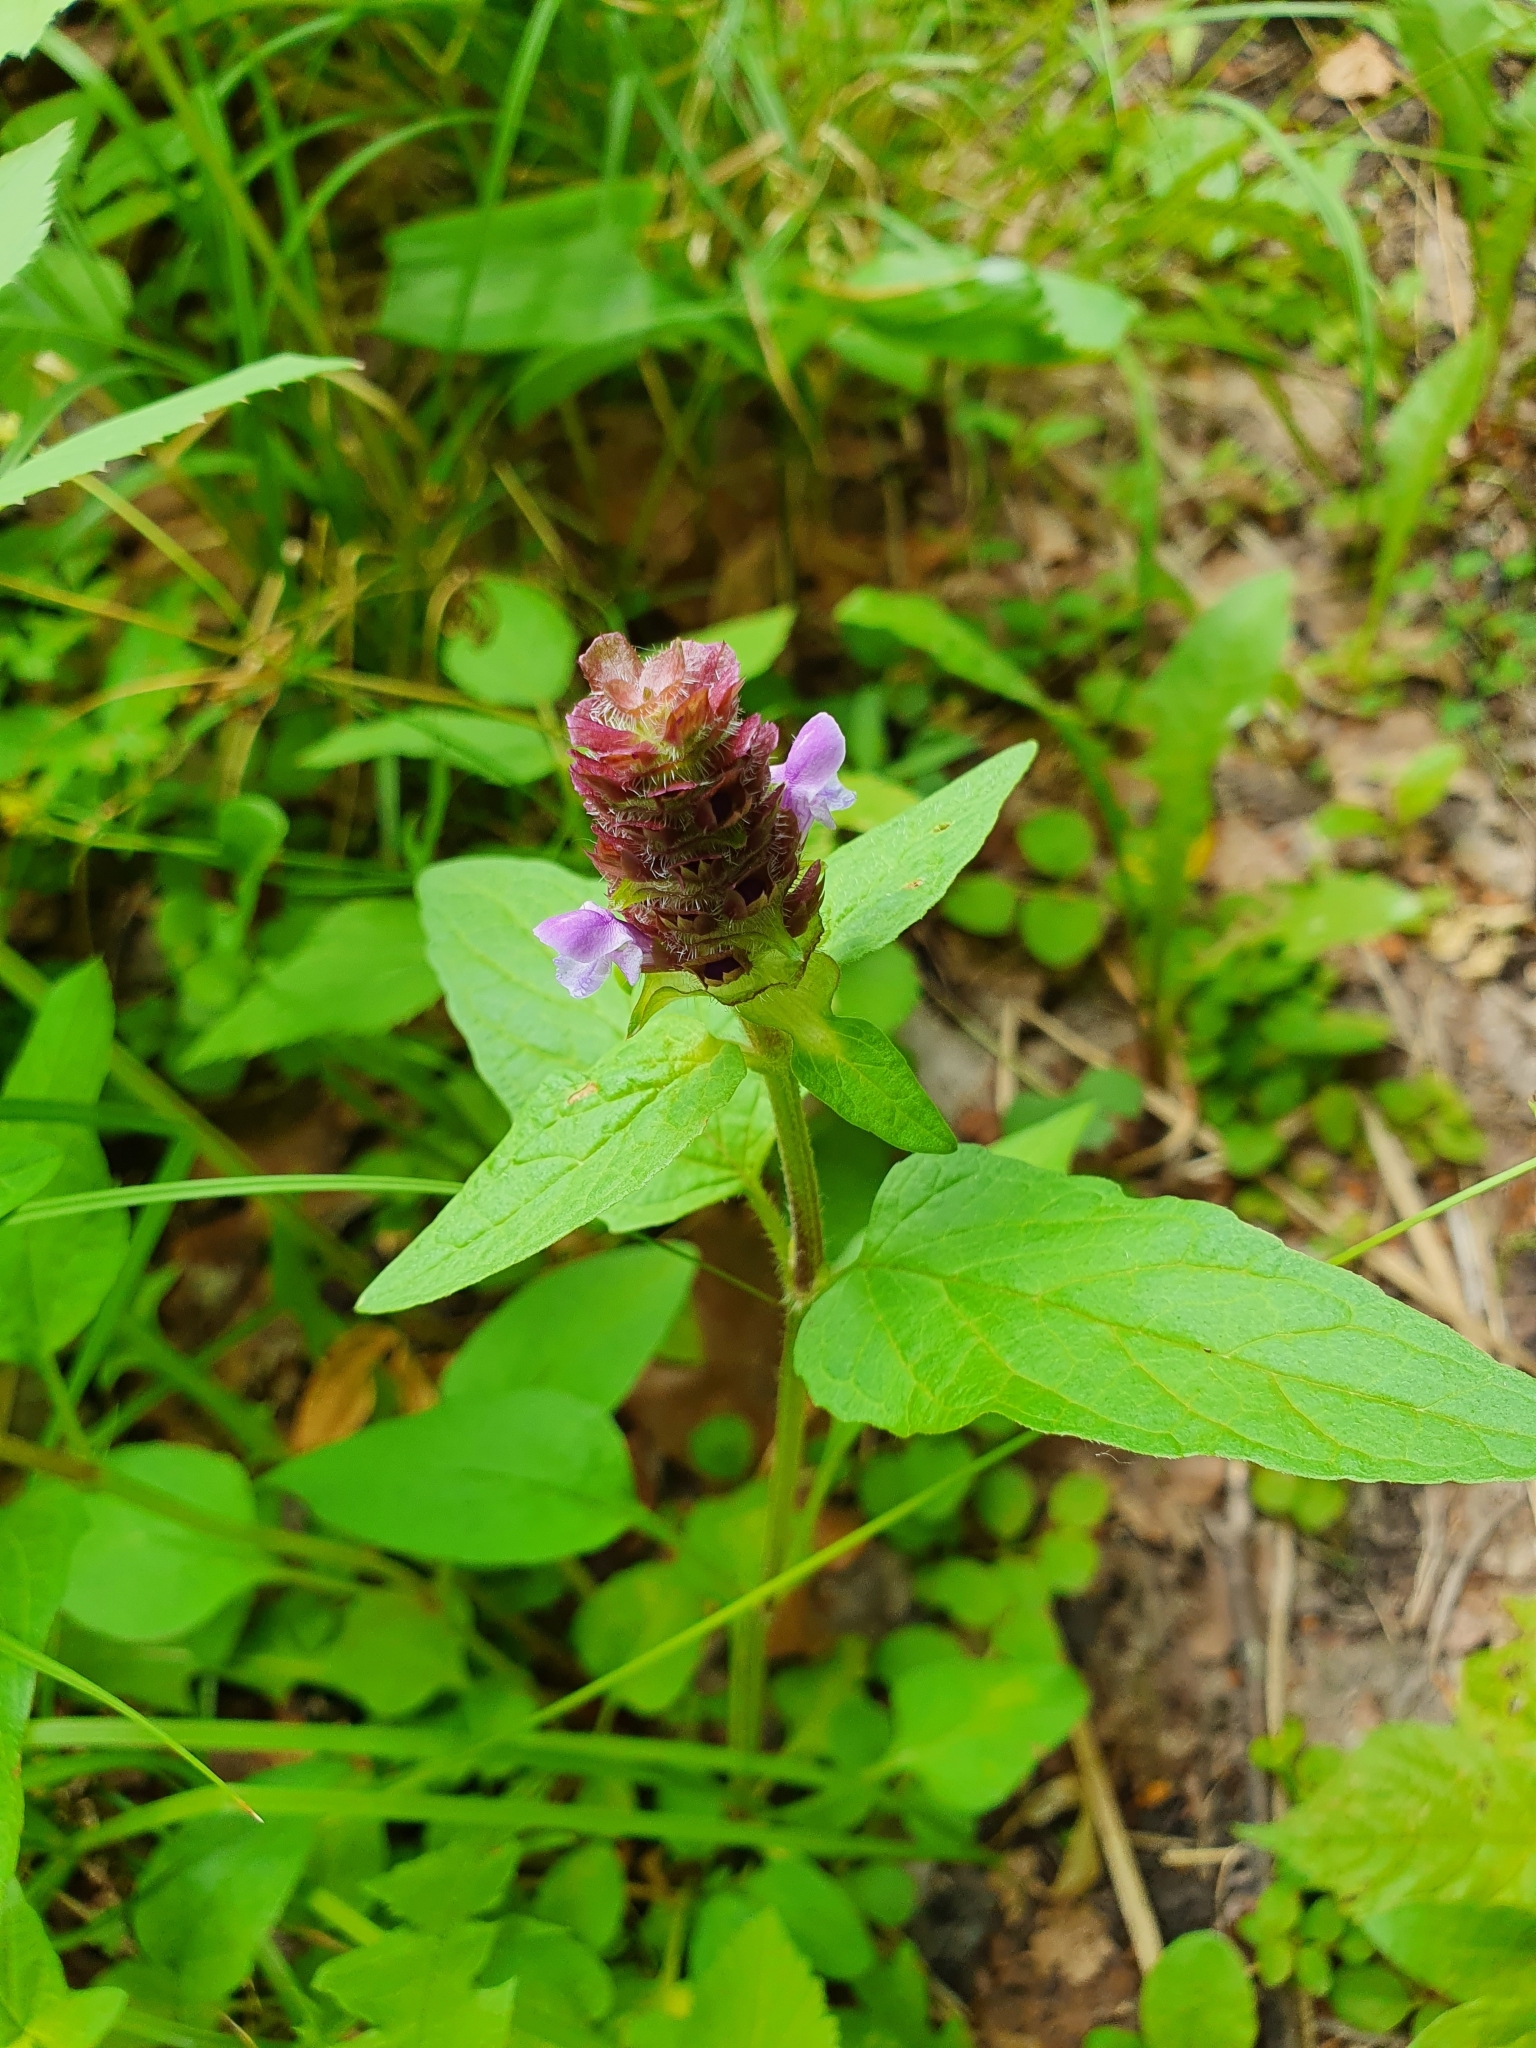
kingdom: Plantae
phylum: Tracheophyta
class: Magnoliopsida
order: Lamiales
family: Lamiaceae
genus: Prunella
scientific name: Prunella vulgaris
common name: Heal-all
